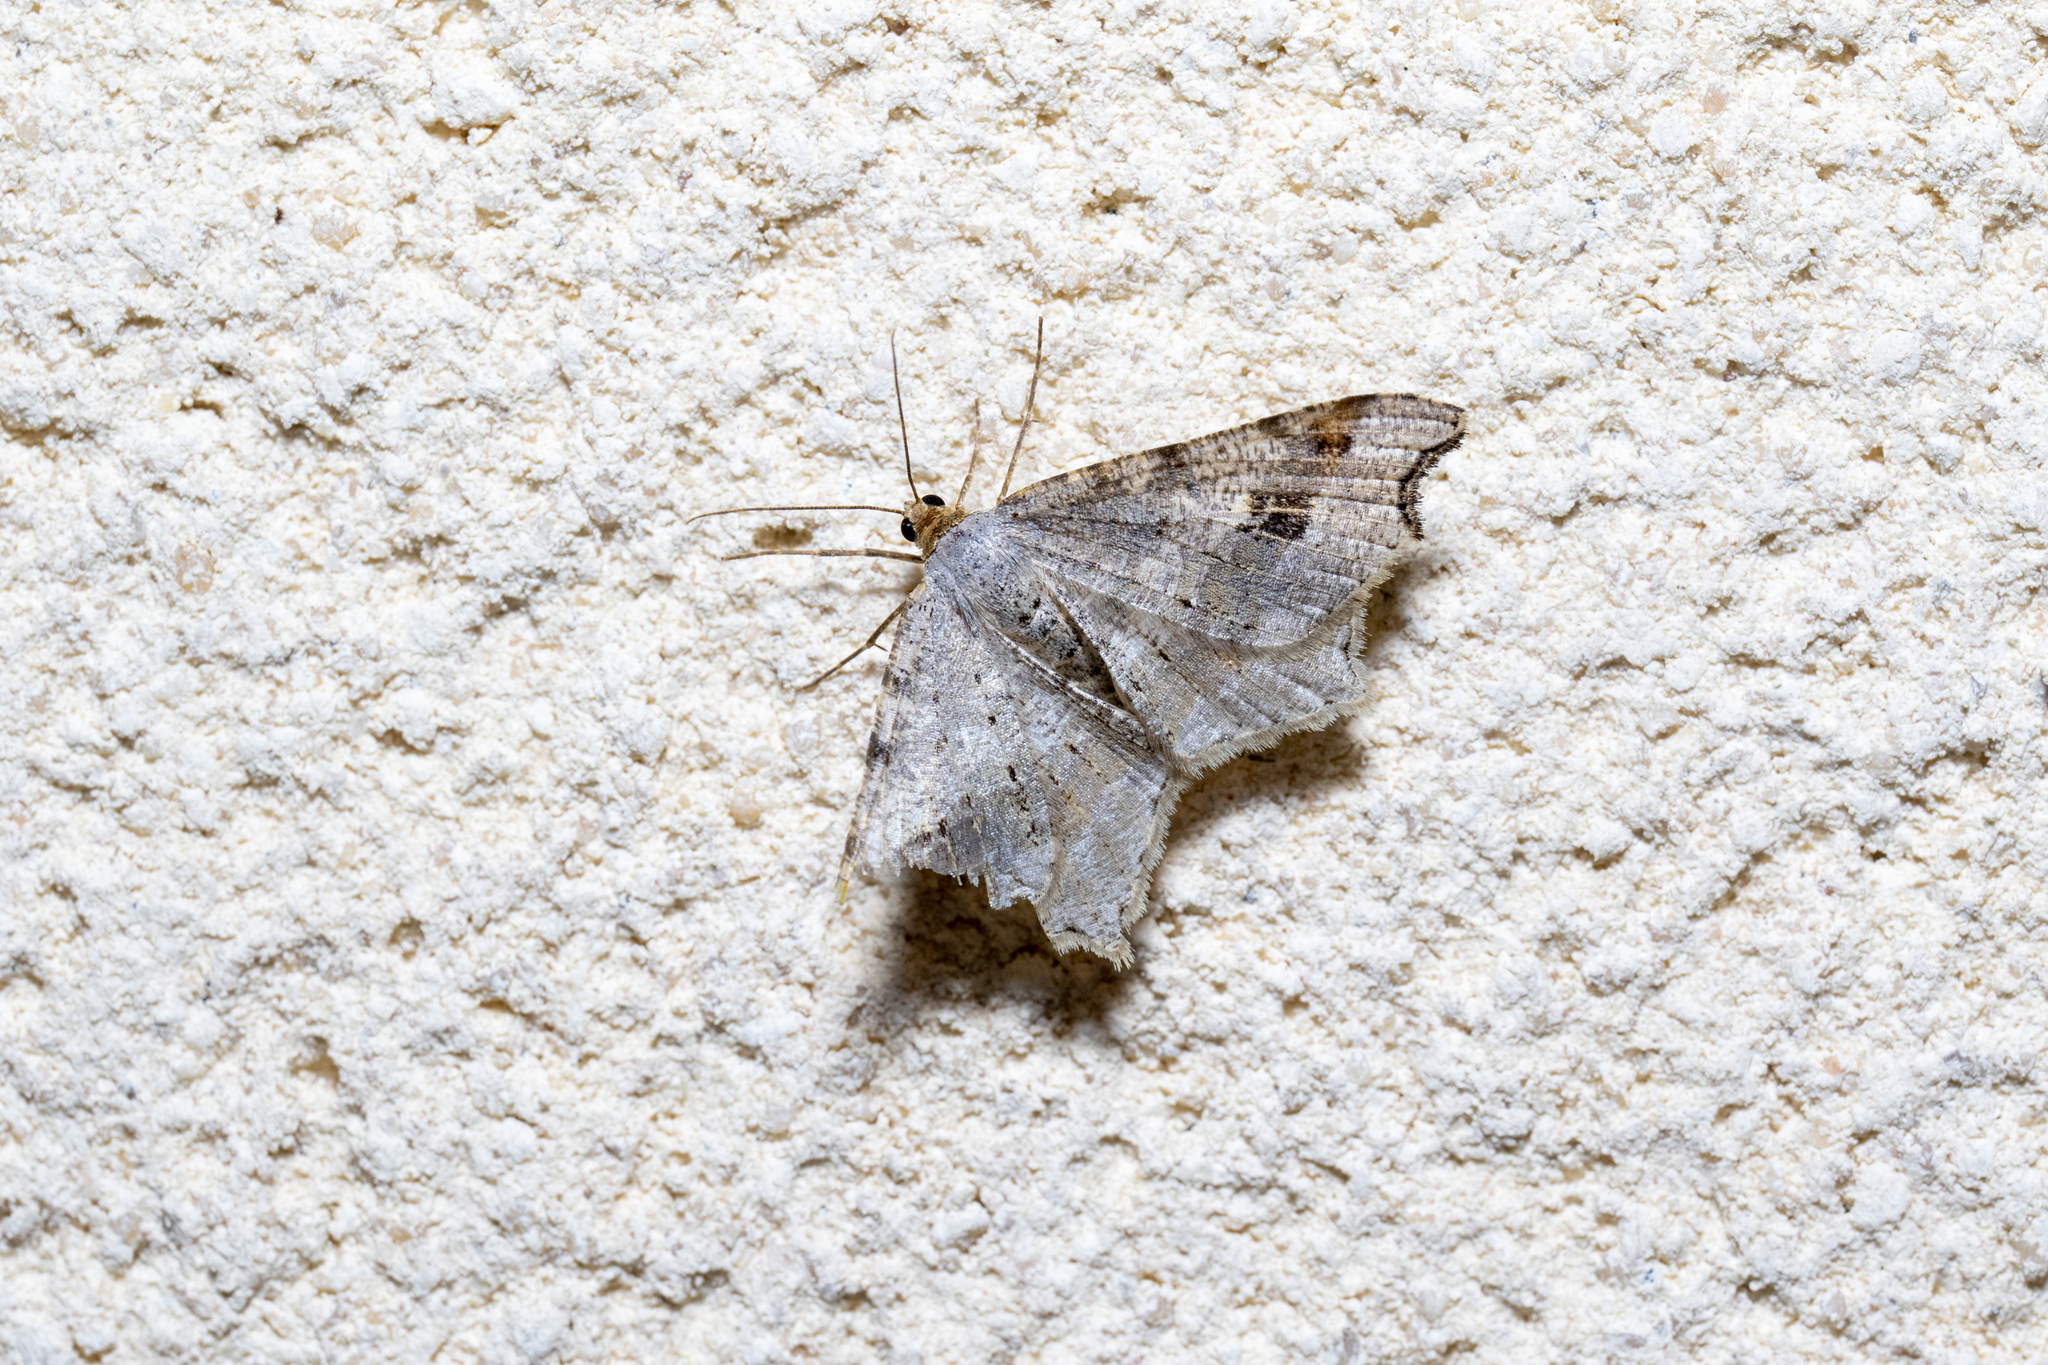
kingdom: Animalia
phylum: Arthropoda
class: Insecta
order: Lepidoptera
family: Geometridae
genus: Macaria
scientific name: Macaria alternata
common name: Sharp-angled peacock
